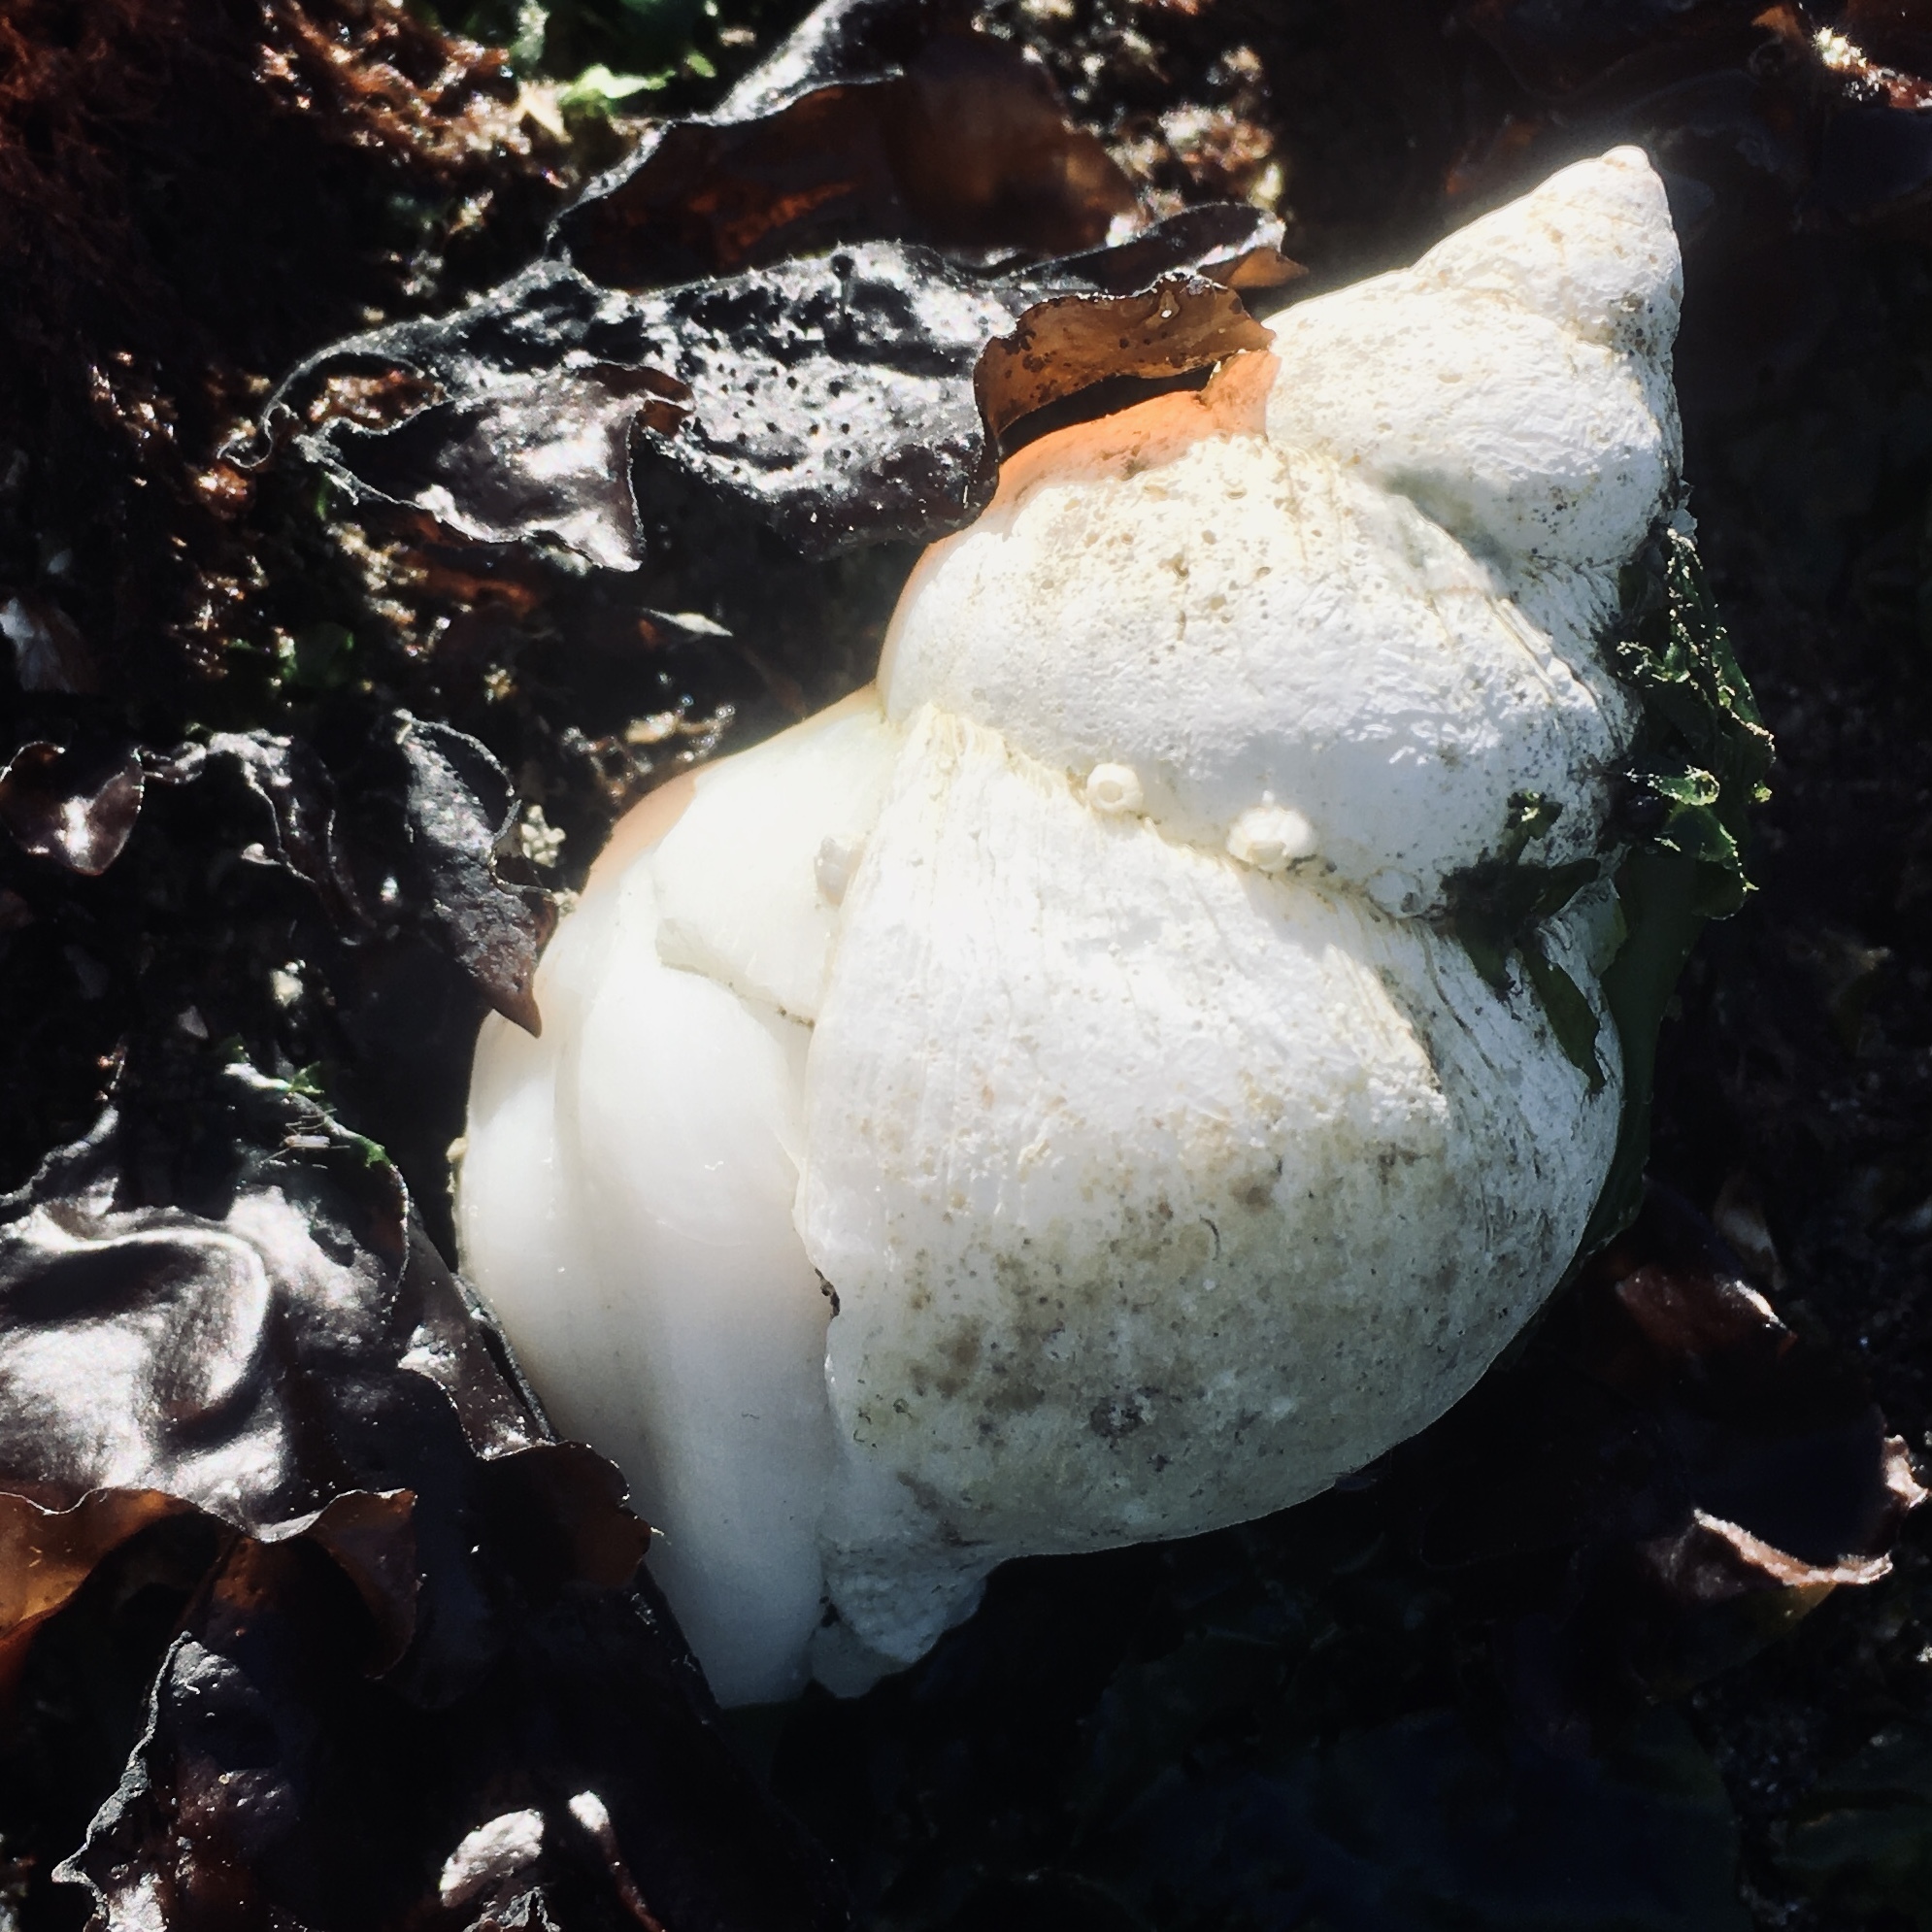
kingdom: Animalia
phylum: Mollusca
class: Gastropoda
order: Neogastropoda
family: Muricidae
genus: Nucella
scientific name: Nucella lamellosa
